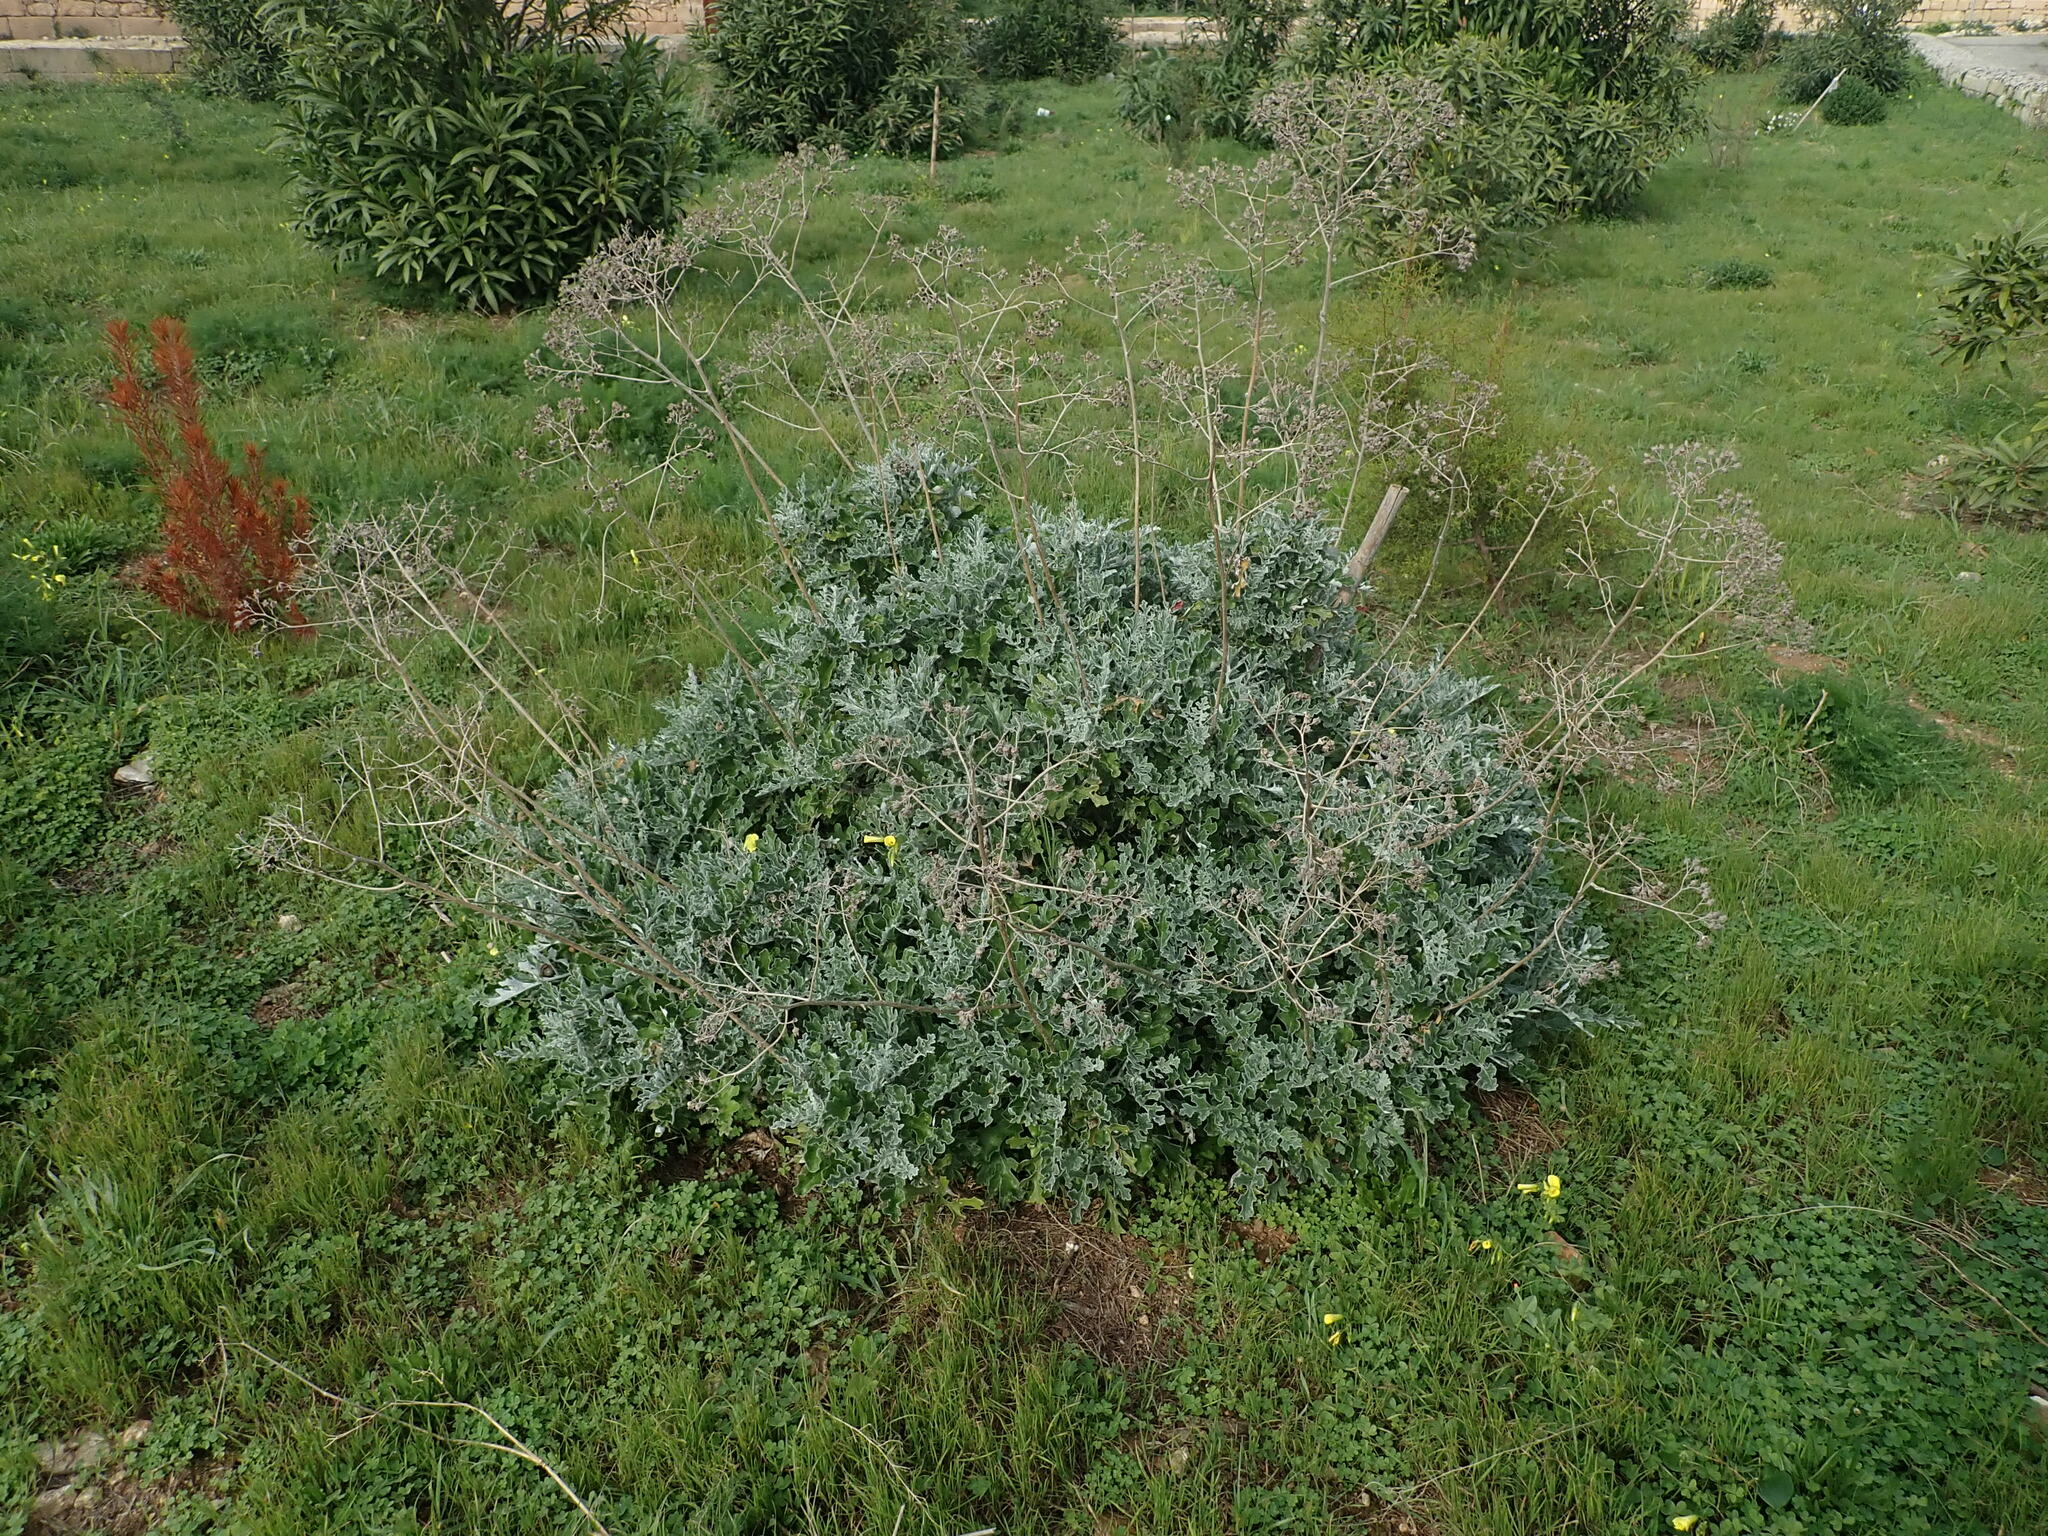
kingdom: Plantae
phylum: Tracheophyta
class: Magnoliopsida
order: Asterales
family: Asteraceae
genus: Jacobaea
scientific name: Jacobaea maritima
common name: Silver ragwort
